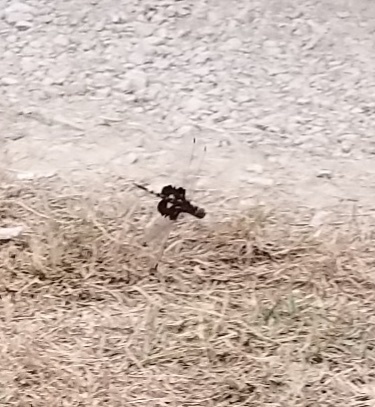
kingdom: Animalia
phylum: Arthropoda
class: Insecta
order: Odonata
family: Libellulidae
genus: Tramea
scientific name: Tramea lacerata
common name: Black saddlebags
